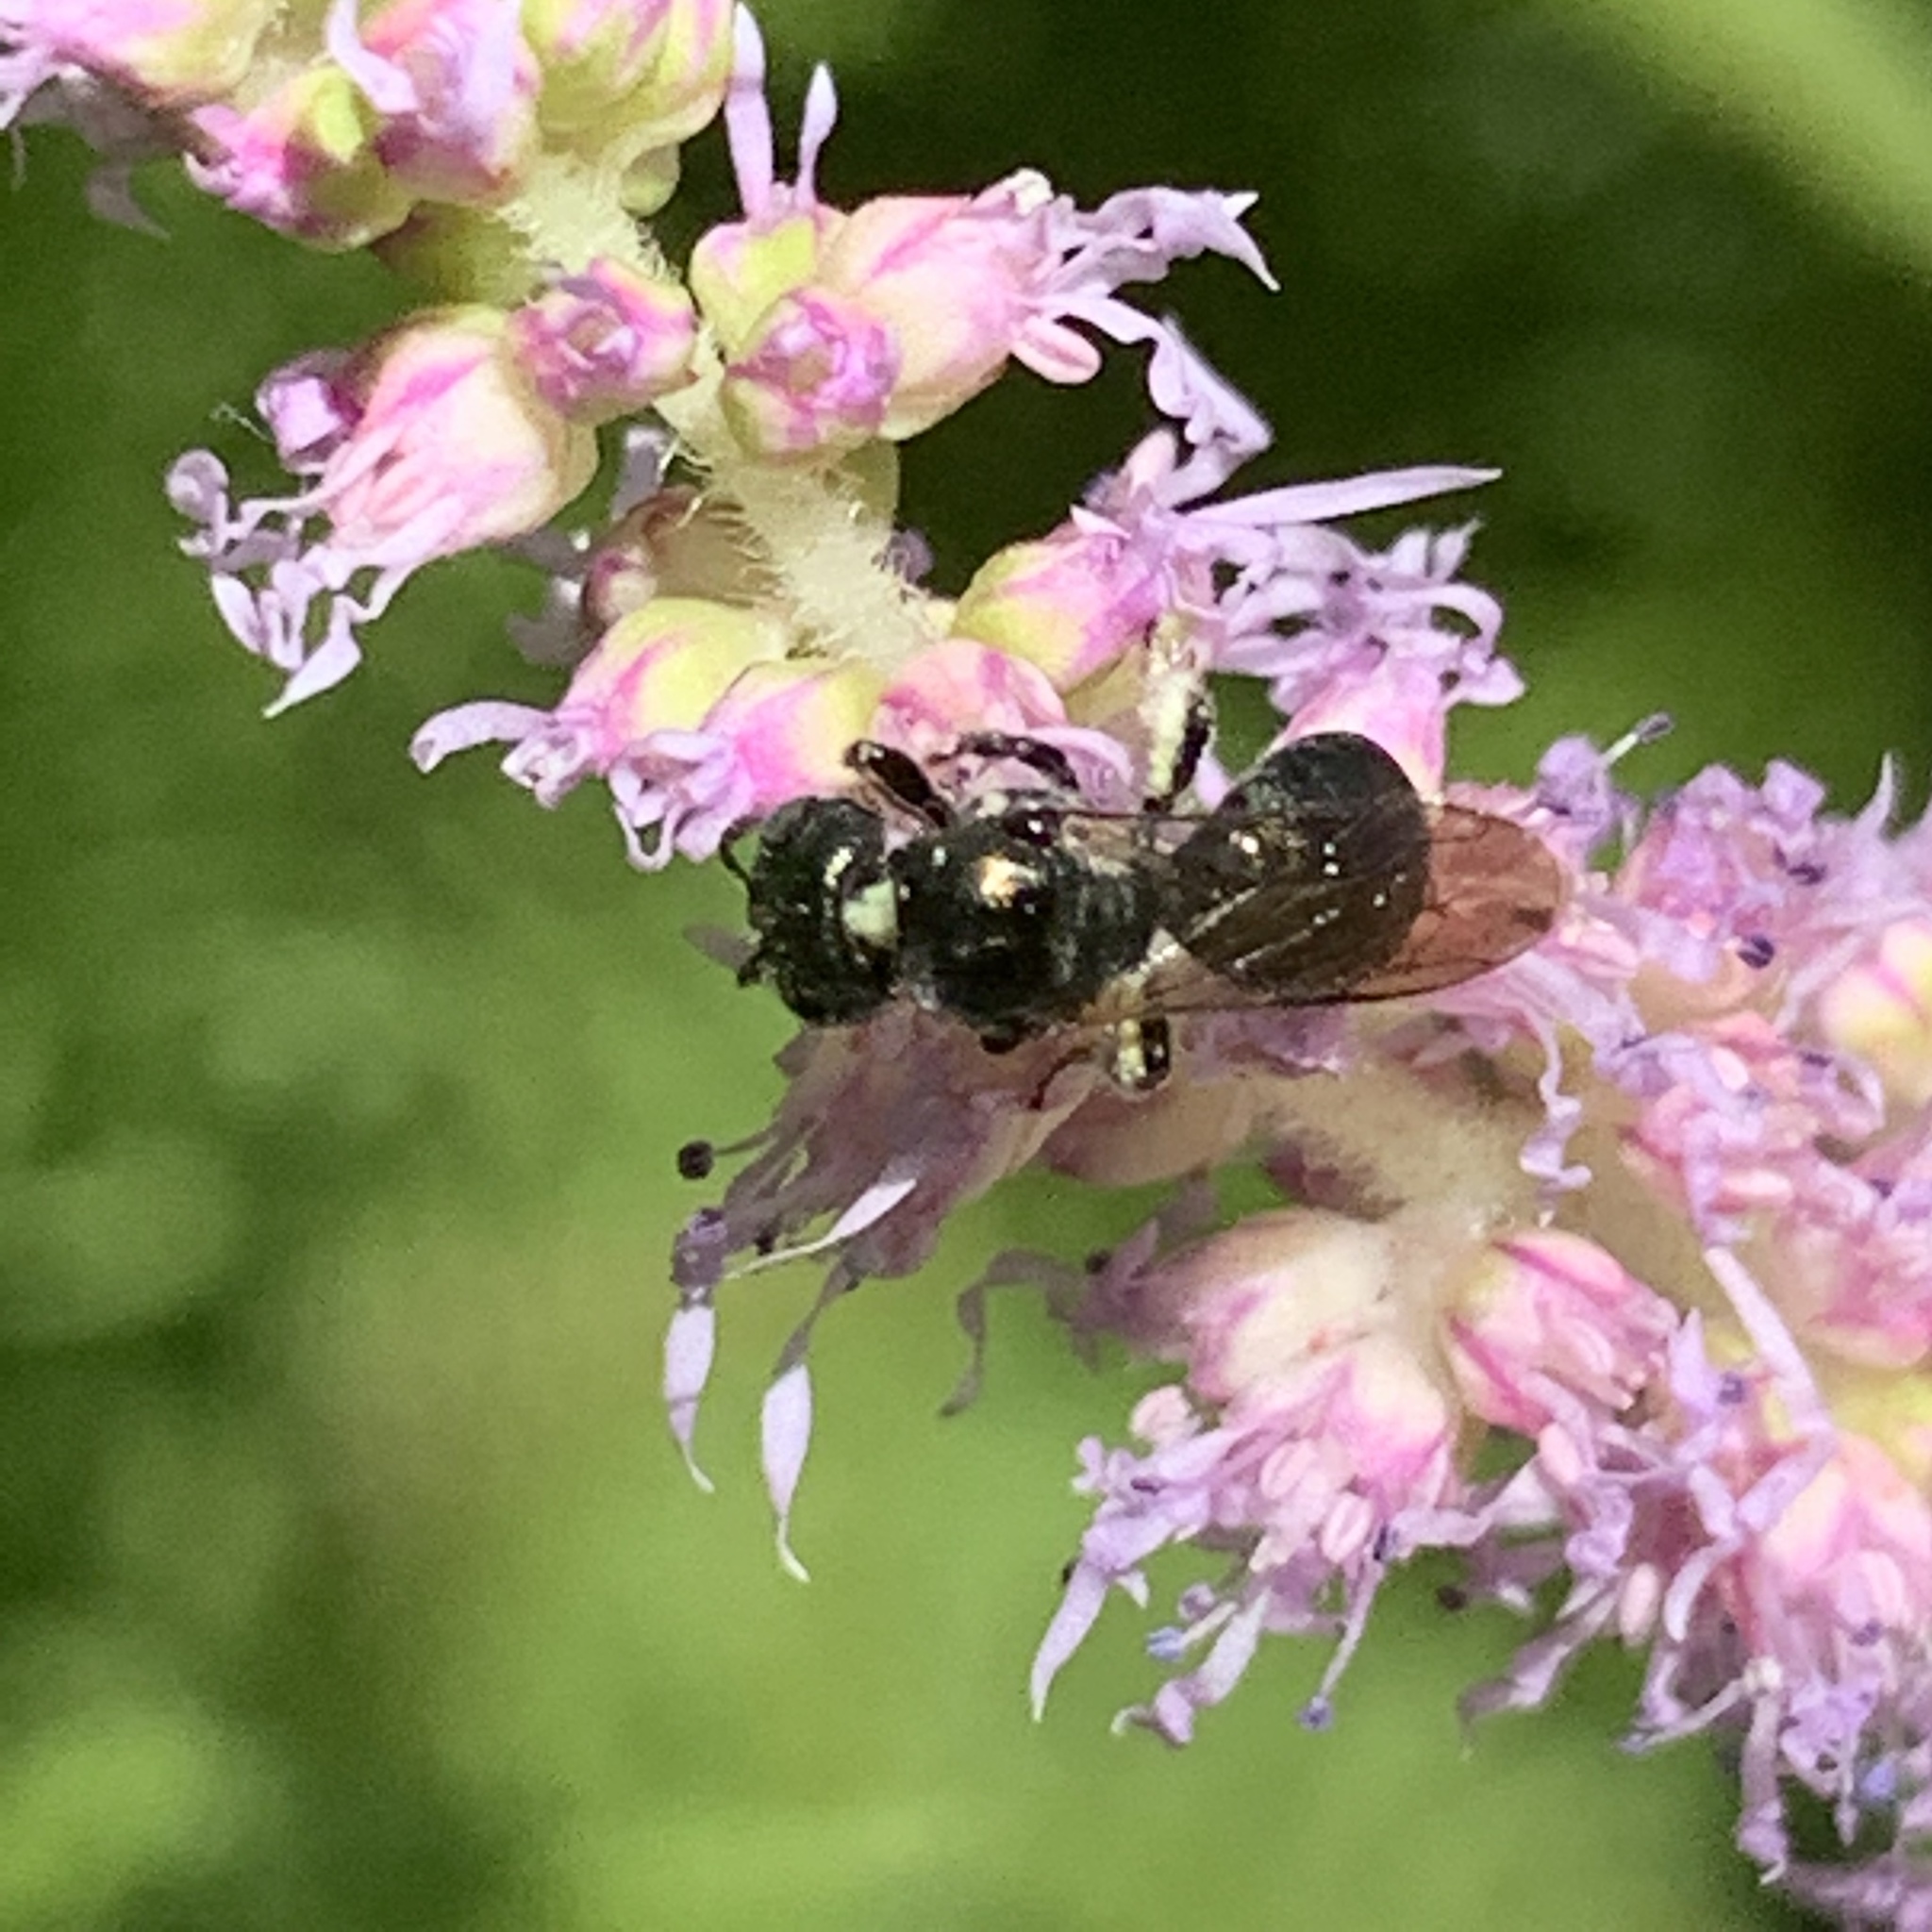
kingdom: Animalia
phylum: Arthropoda
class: Insecta
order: Hymenoptera
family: Apidae
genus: Zadontomerus
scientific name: Zadontomerus
